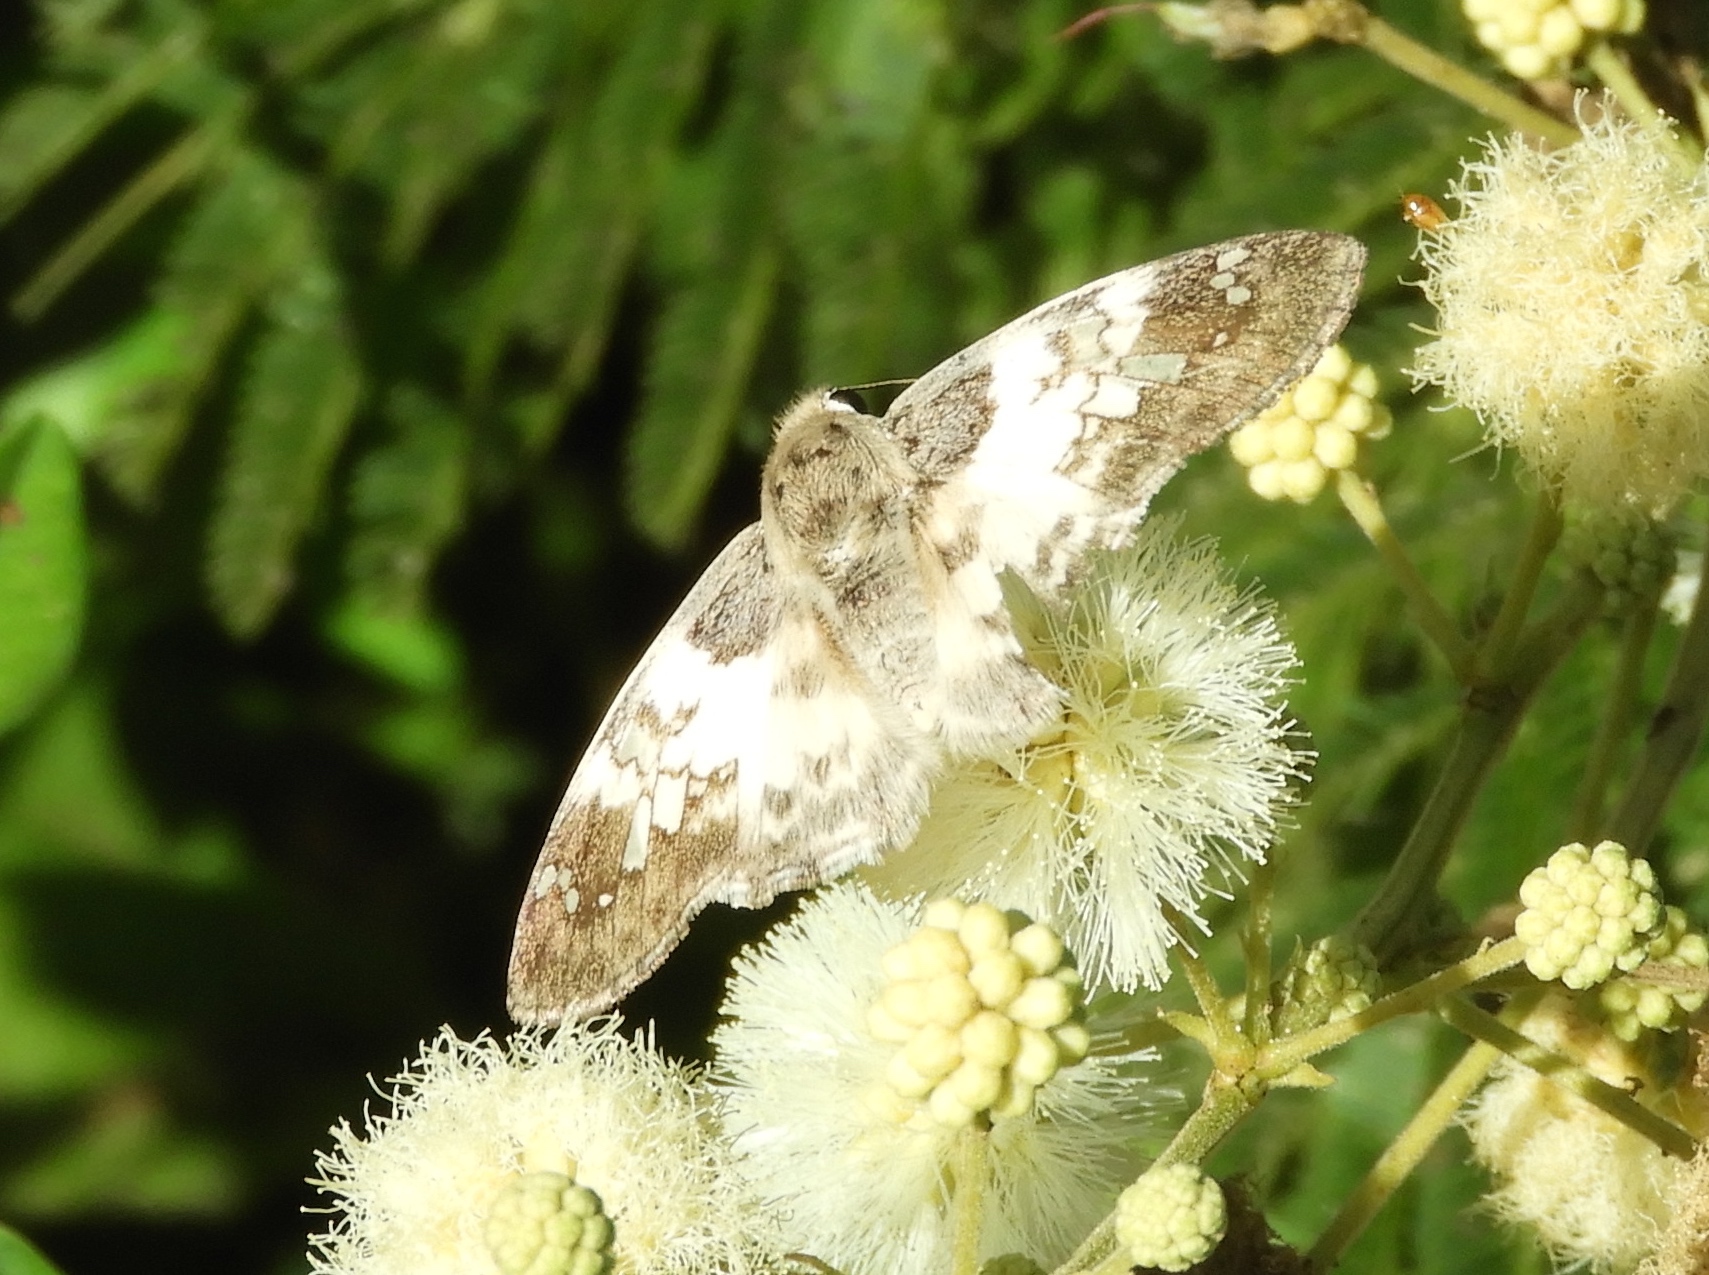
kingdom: Animalia
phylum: Arthropoda
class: Insecta
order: Lepidoptera
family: Hesperiidae
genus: Polyctor
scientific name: Polyctor cleta
